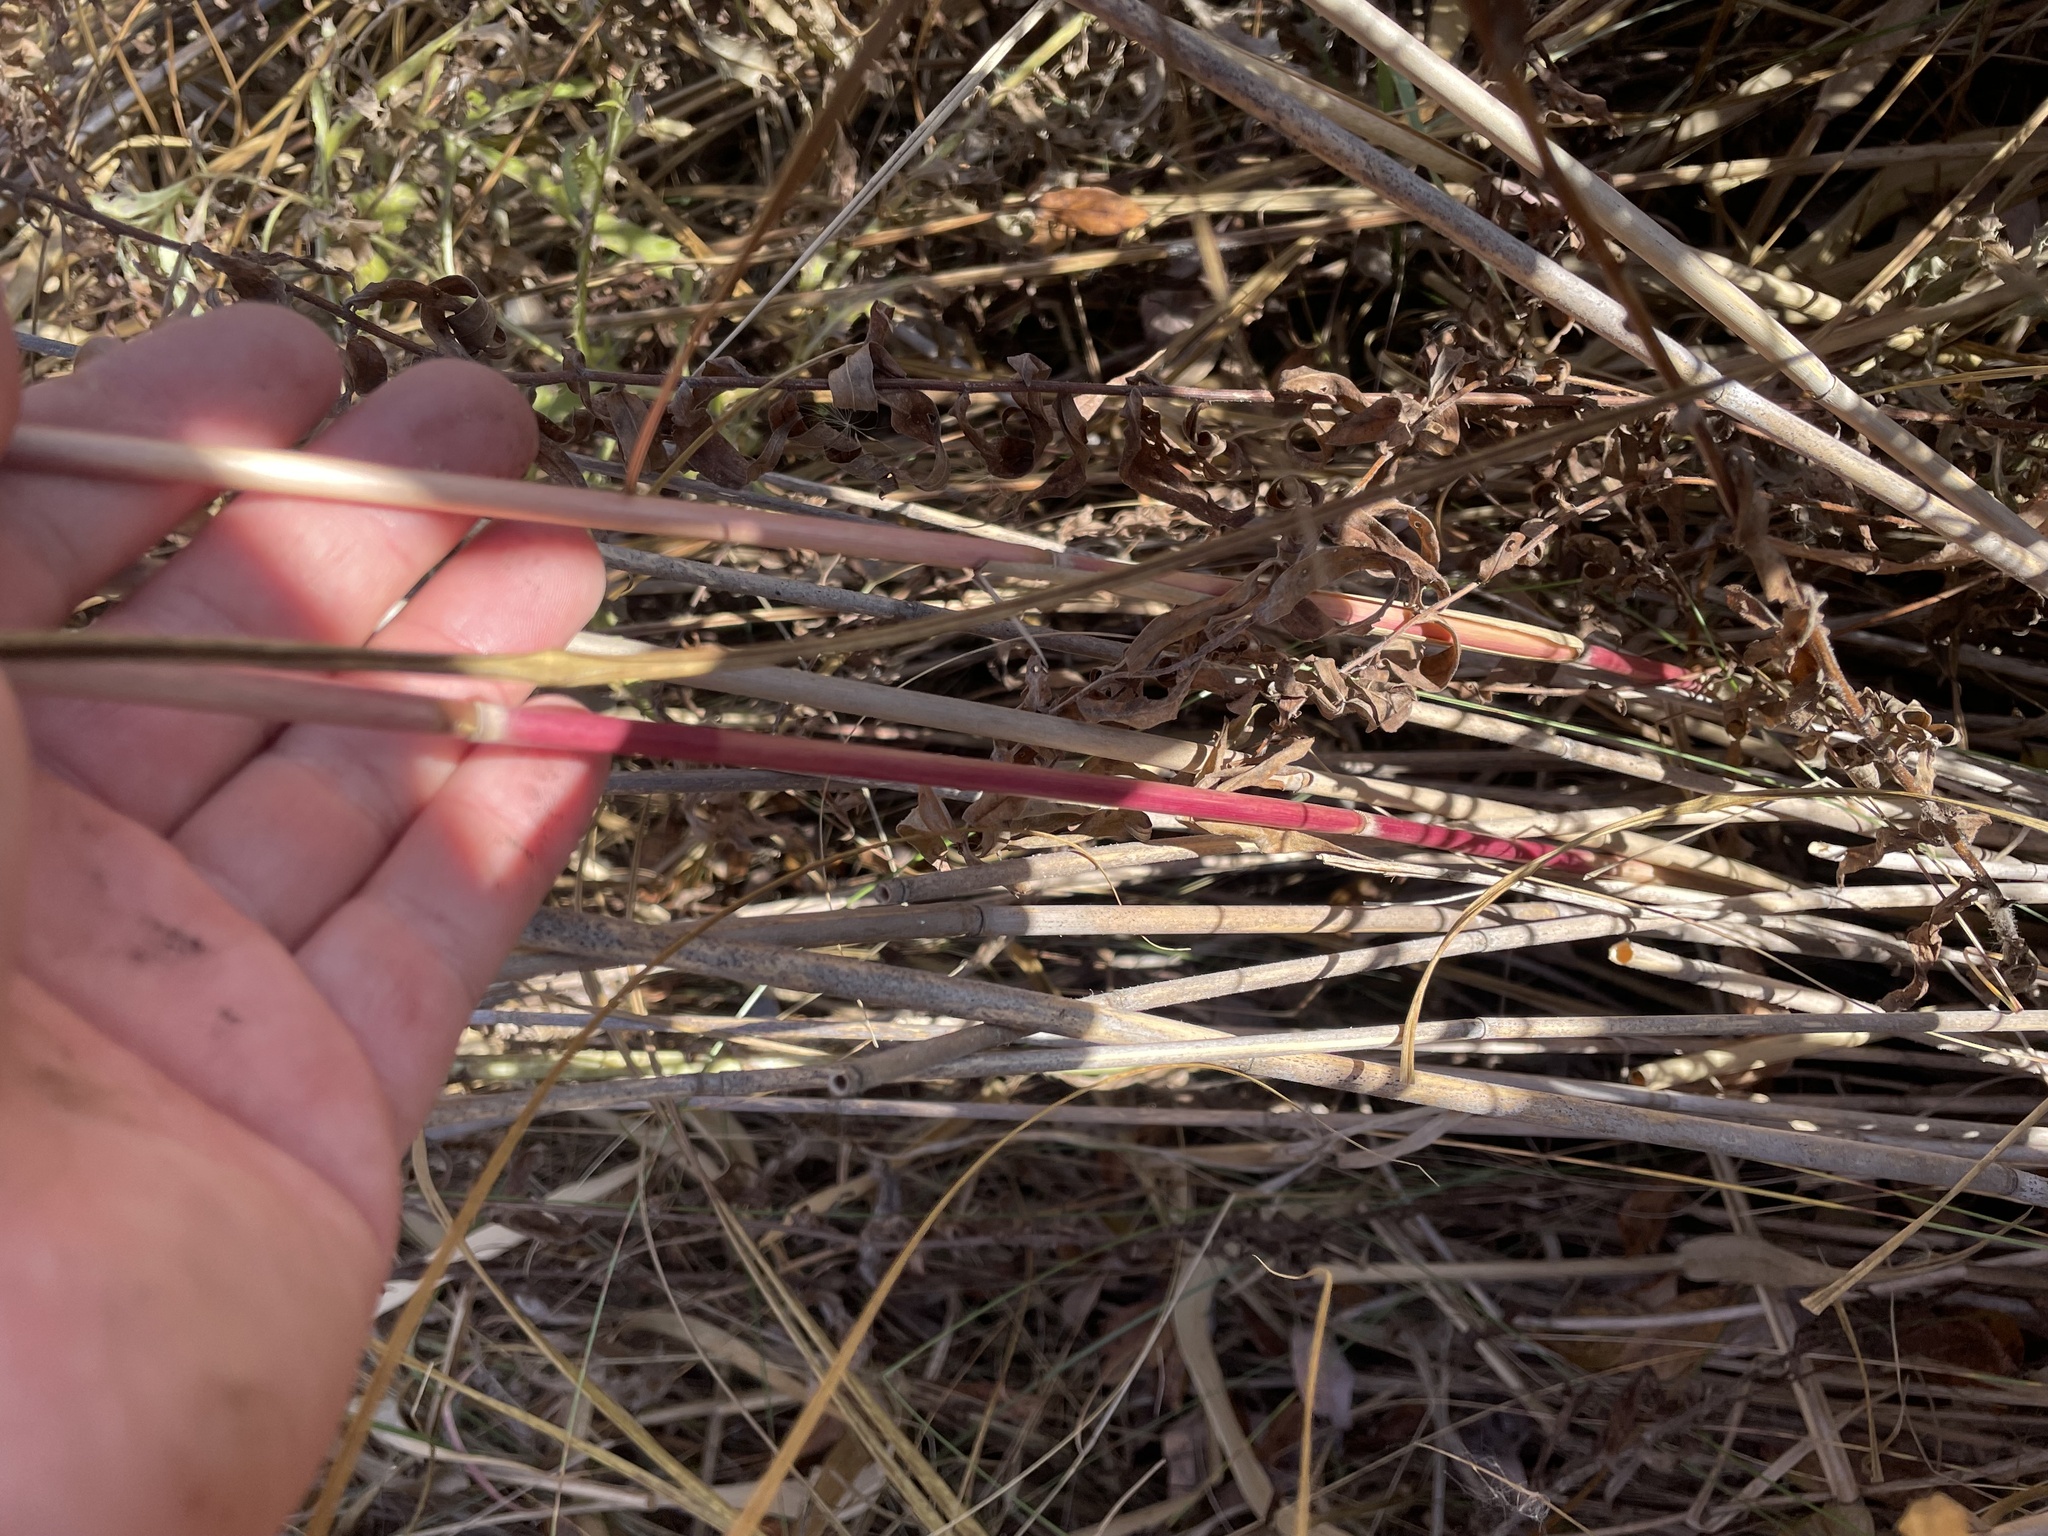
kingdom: Plantae
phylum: Tracheophyta
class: Liliopsida
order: Poales
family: Poaceae
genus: Phragmites
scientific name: Phragmites australis
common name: Common reed
